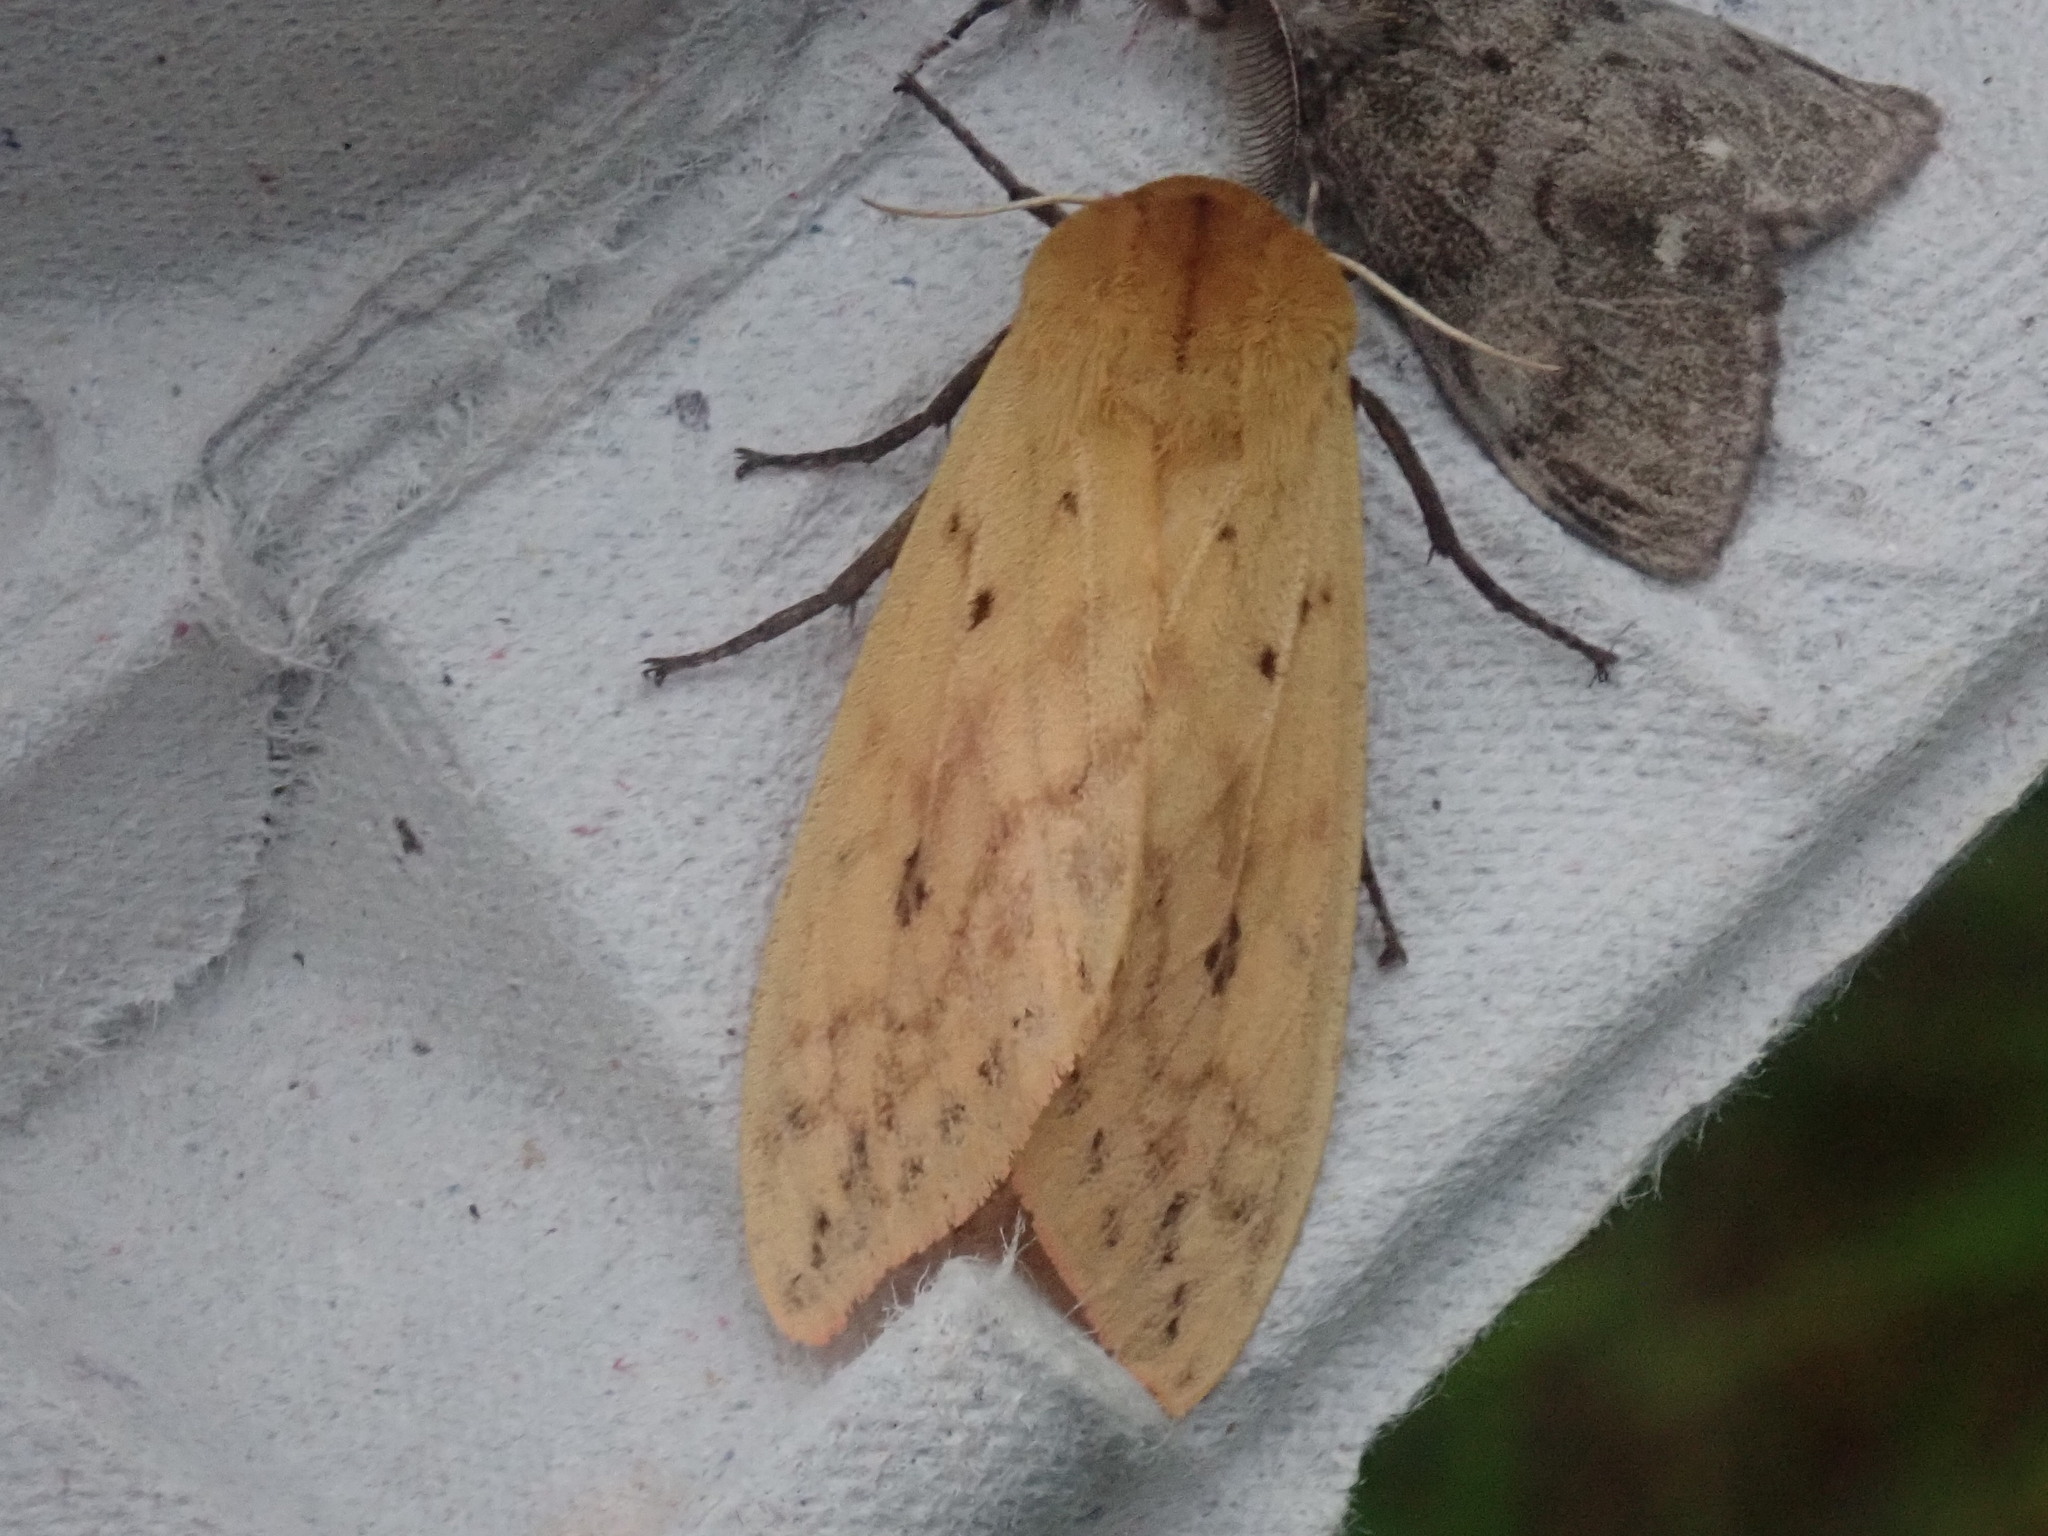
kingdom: Animalia
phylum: Arthropoda
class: Insecta
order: Lepidoptera
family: Erebidae
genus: Pyrrharctia
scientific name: Pyrrharctia isabella
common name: Isabella tiger moth
